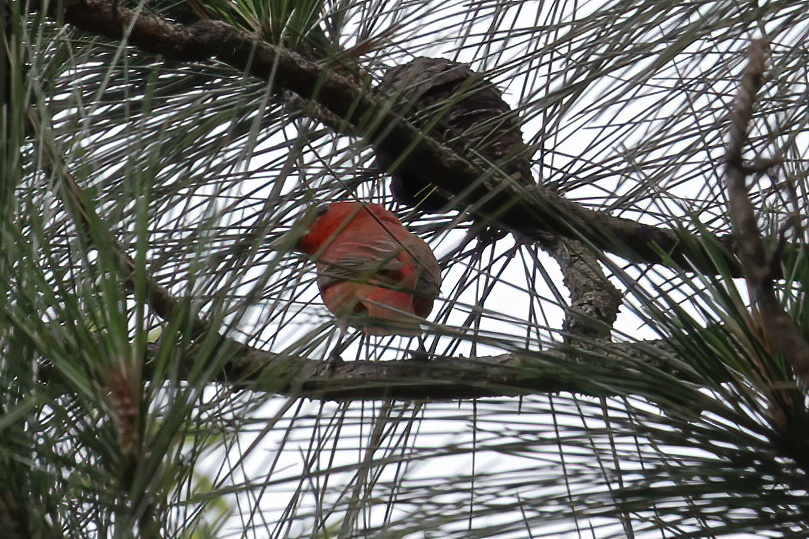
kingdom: Animalia
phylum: Chordata
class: Aves
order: Passeriformes
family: Cardinalidae
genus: Piranga
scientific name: Piranga rubra
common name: Summer tanager
